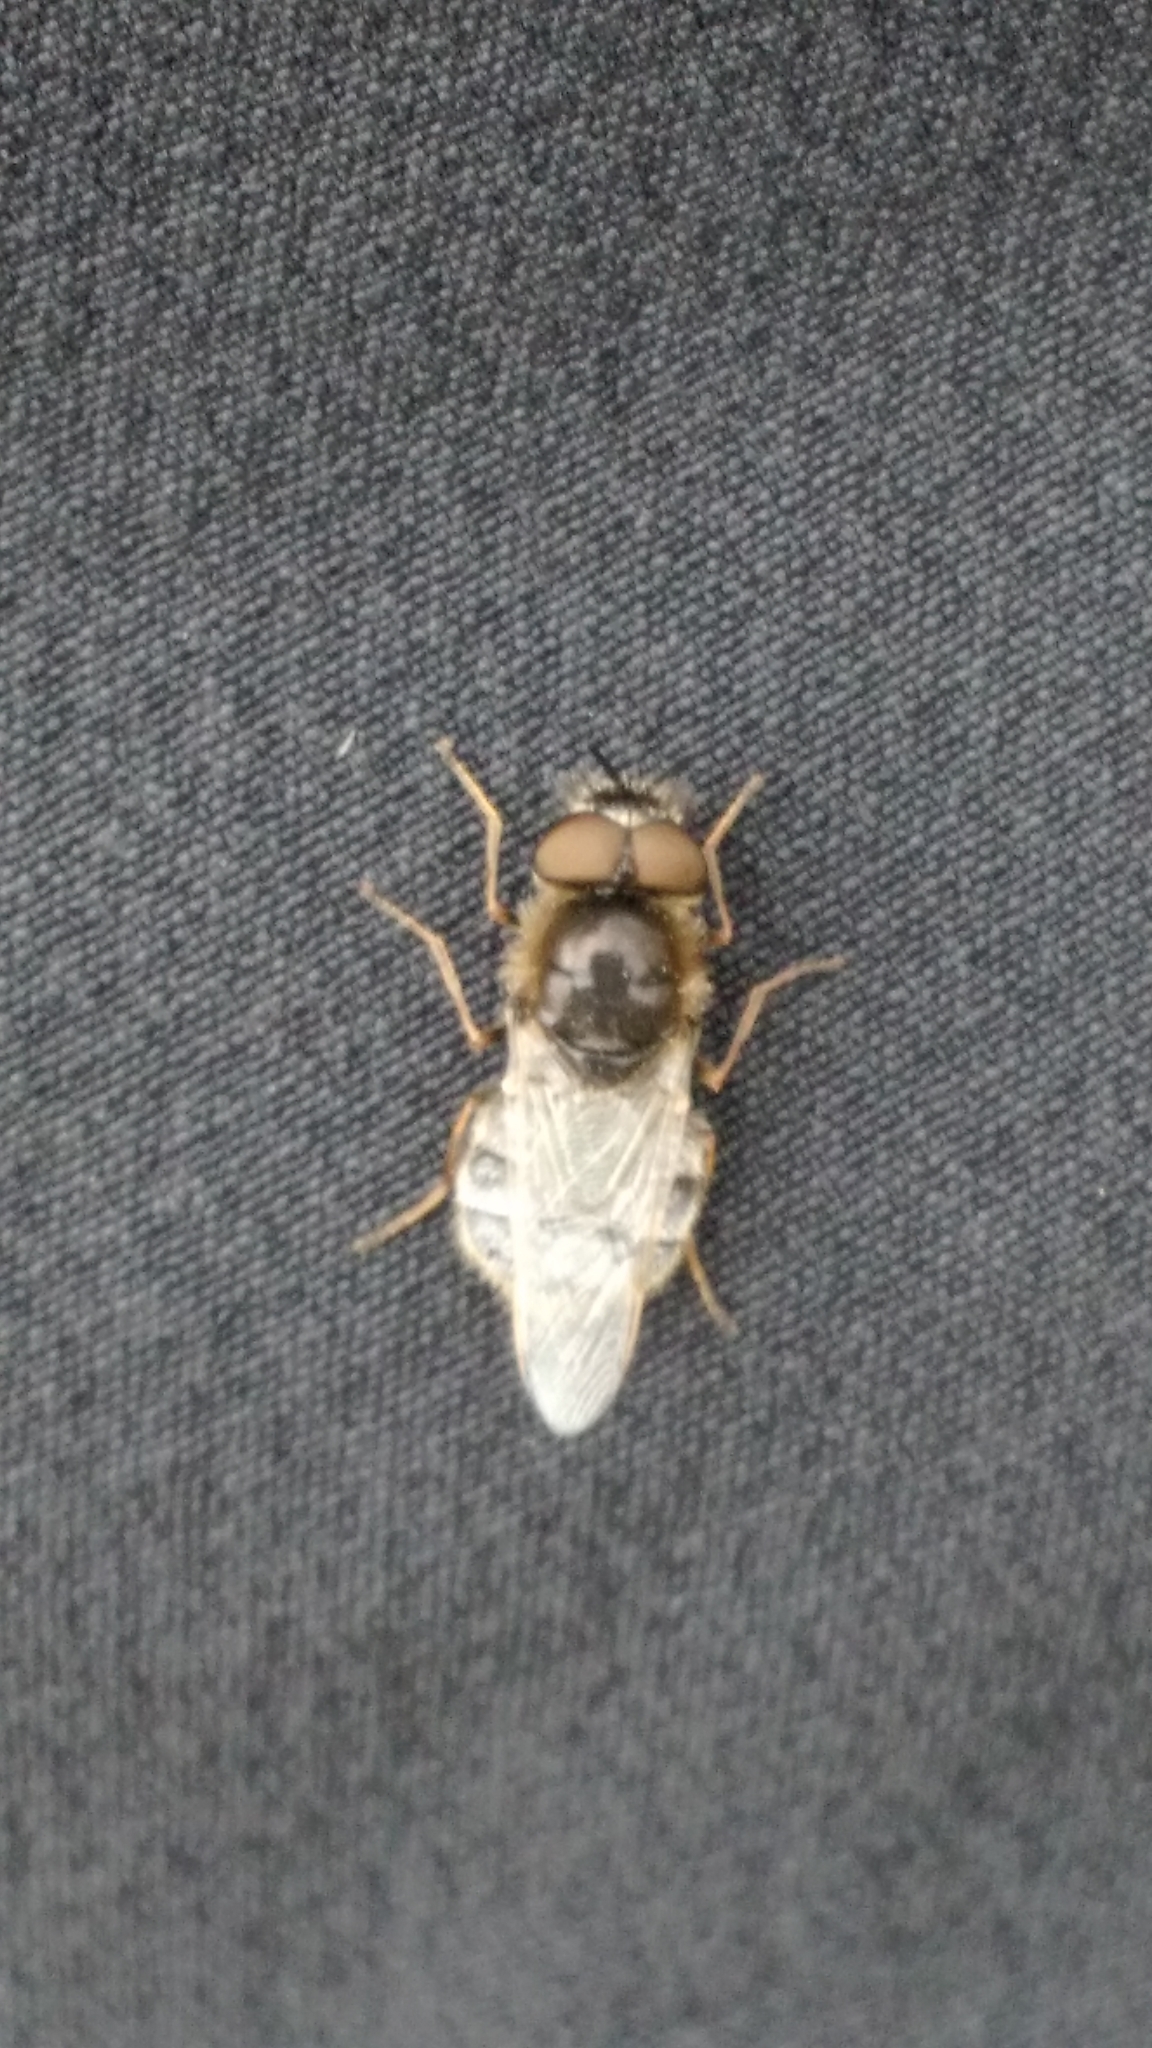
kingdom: Animalia
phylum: Arthropoda
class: Insecta
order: Diptera
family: Stratiomyidae
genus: Odontomyia
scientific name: Odontomyia argentata
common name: Silver colonel
